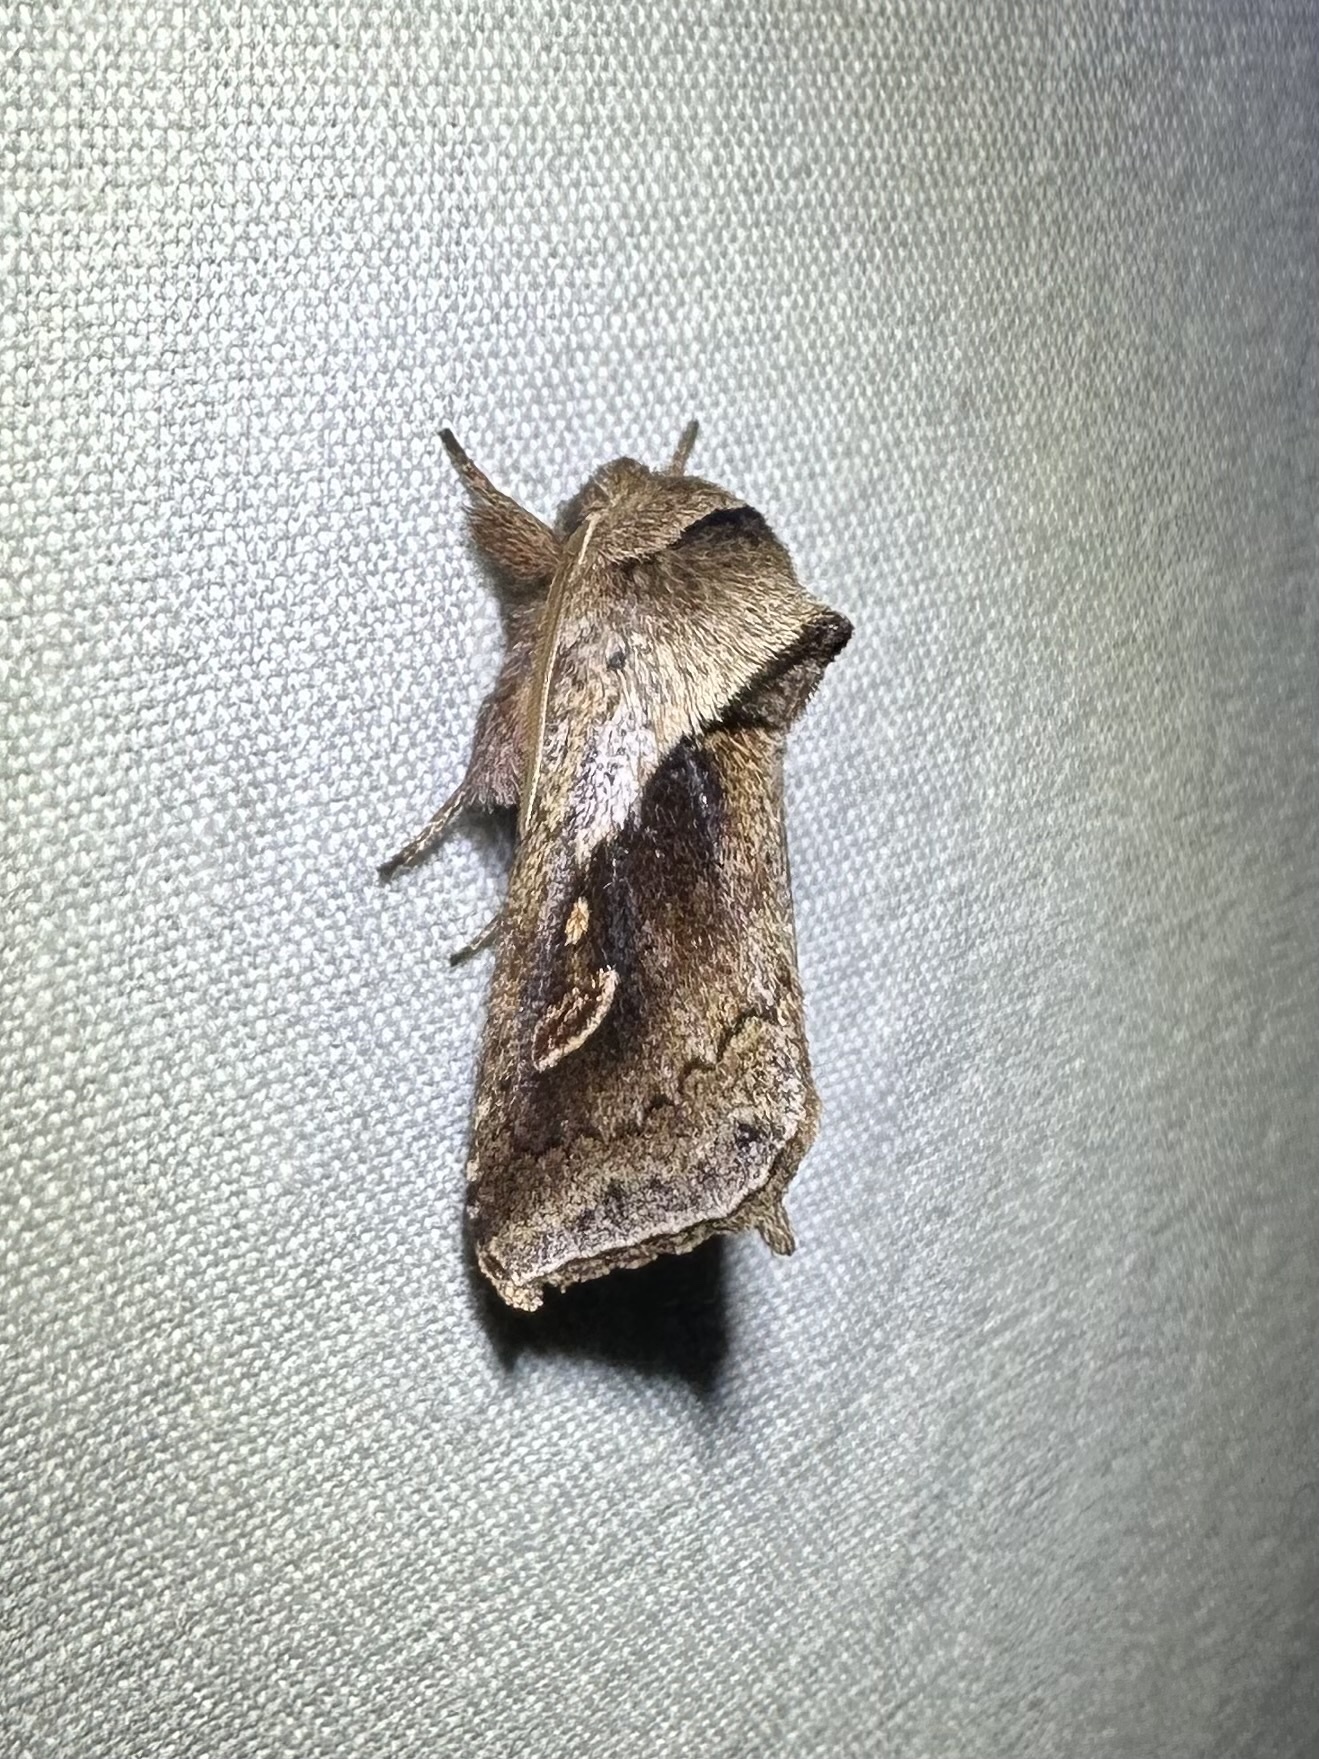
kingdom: Animalia
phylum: Arthropoda
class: Insecta
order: Lepidoptera
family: Noctuidae
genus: Bellura
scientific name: Bellura obliqua
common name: Cattail borer moth
